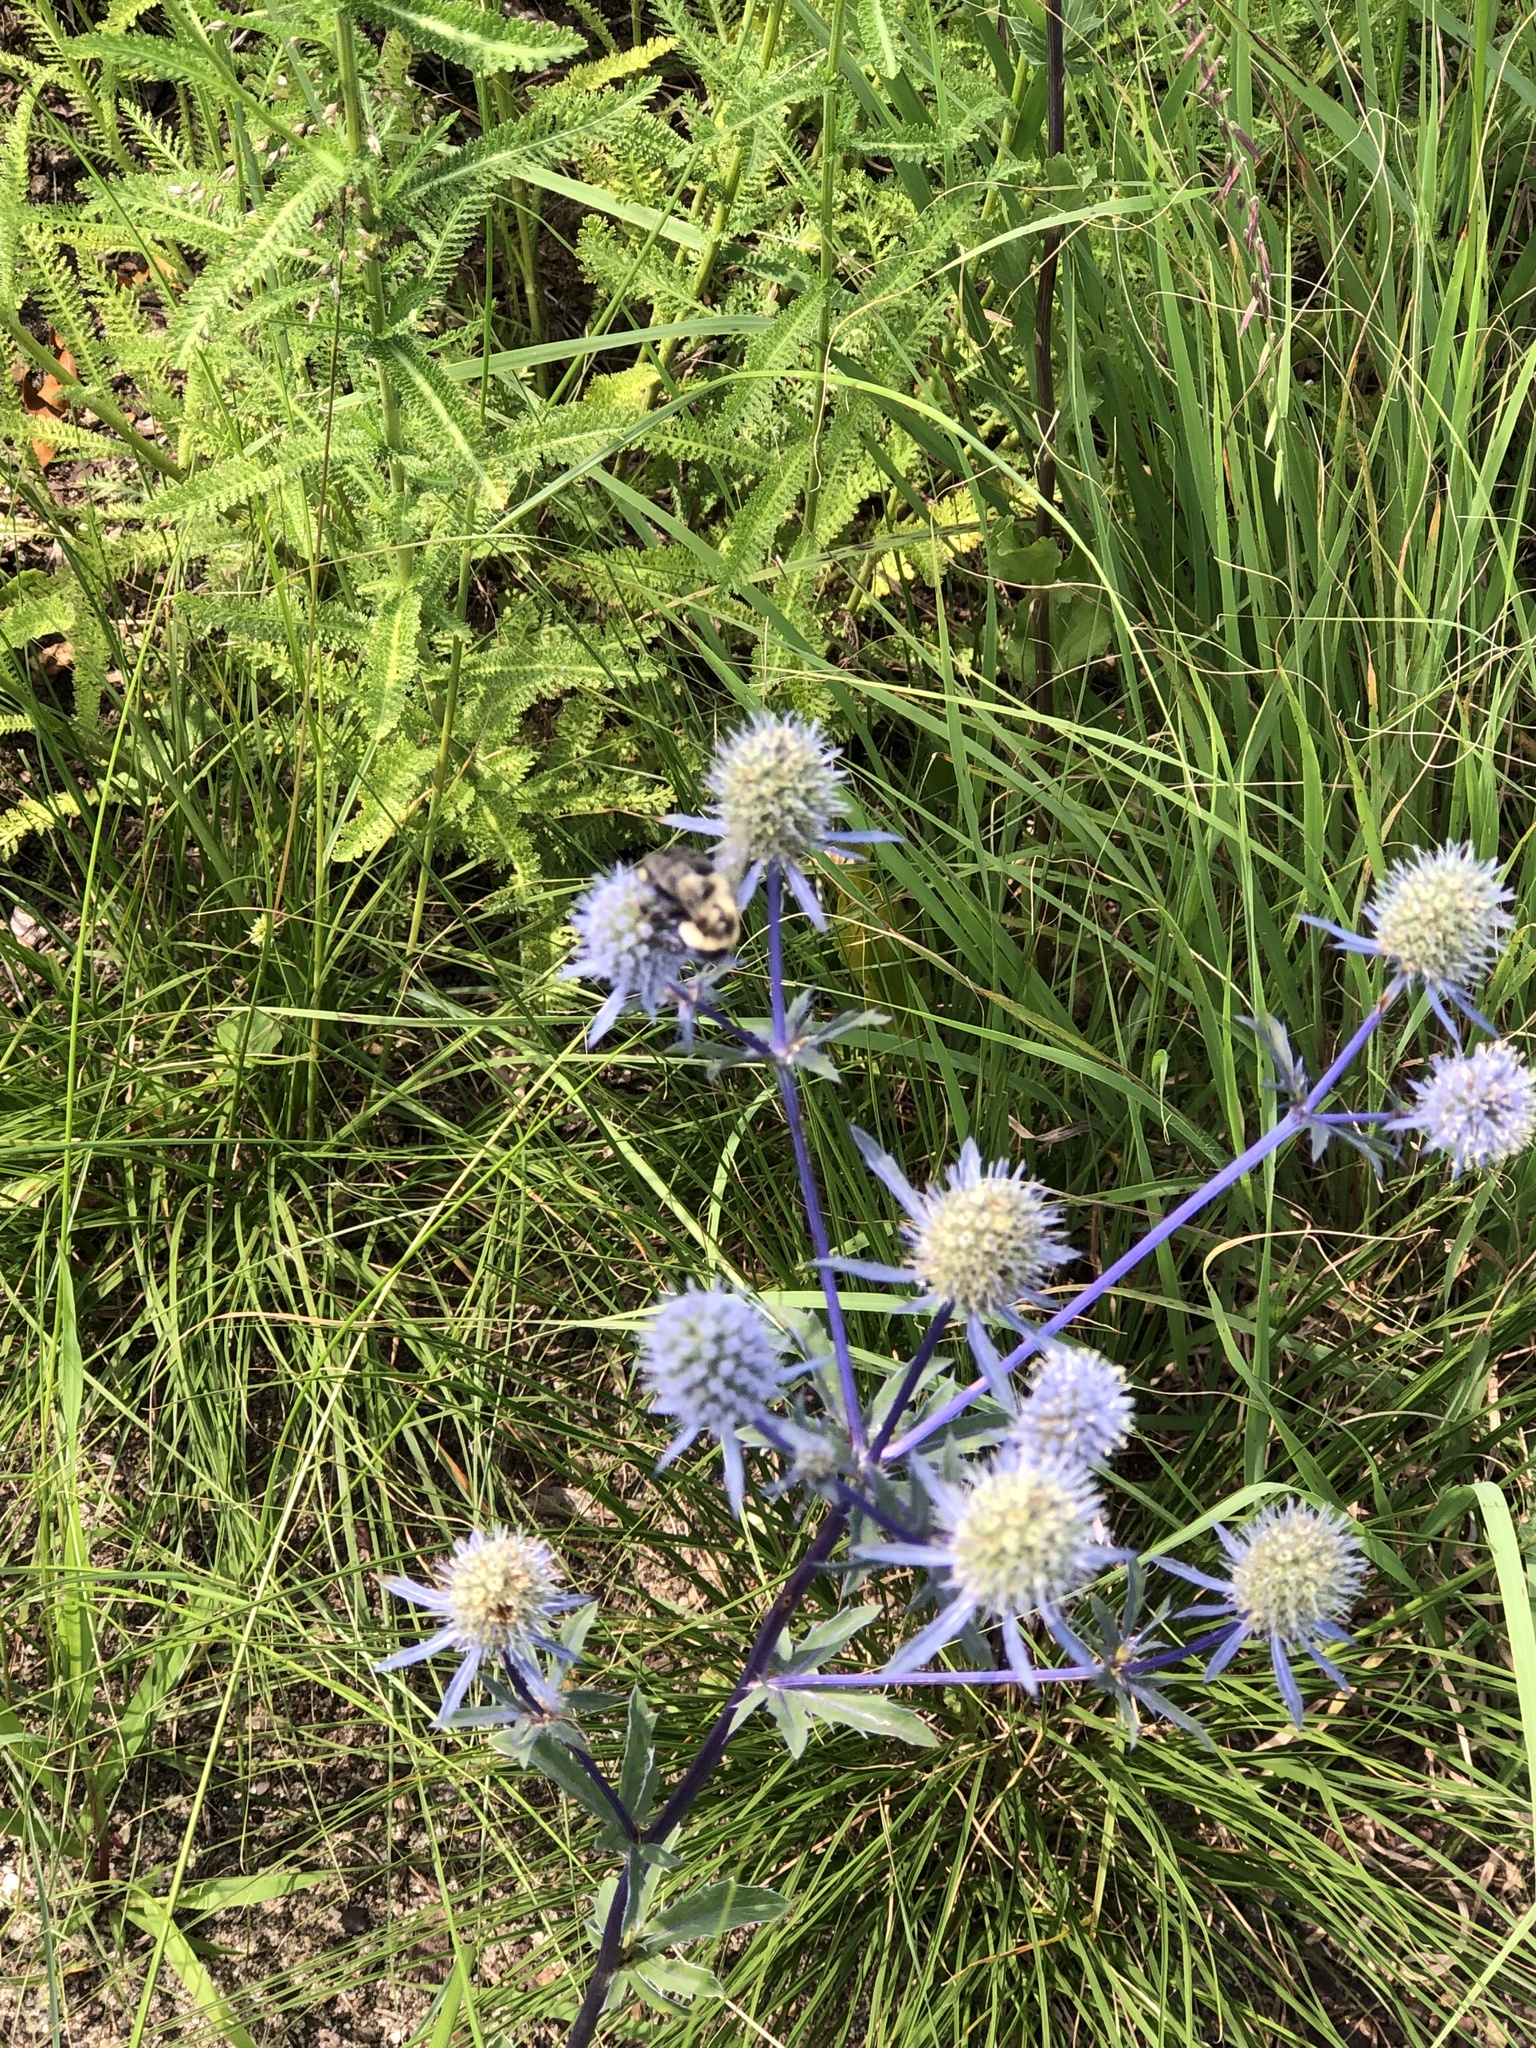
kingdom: Animalia
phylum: Arthropoda
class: Insecta
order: Hymenoptera
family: Apidae
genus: Bombus
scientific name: Bombus impatiens
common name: Common eastern bumble bee
